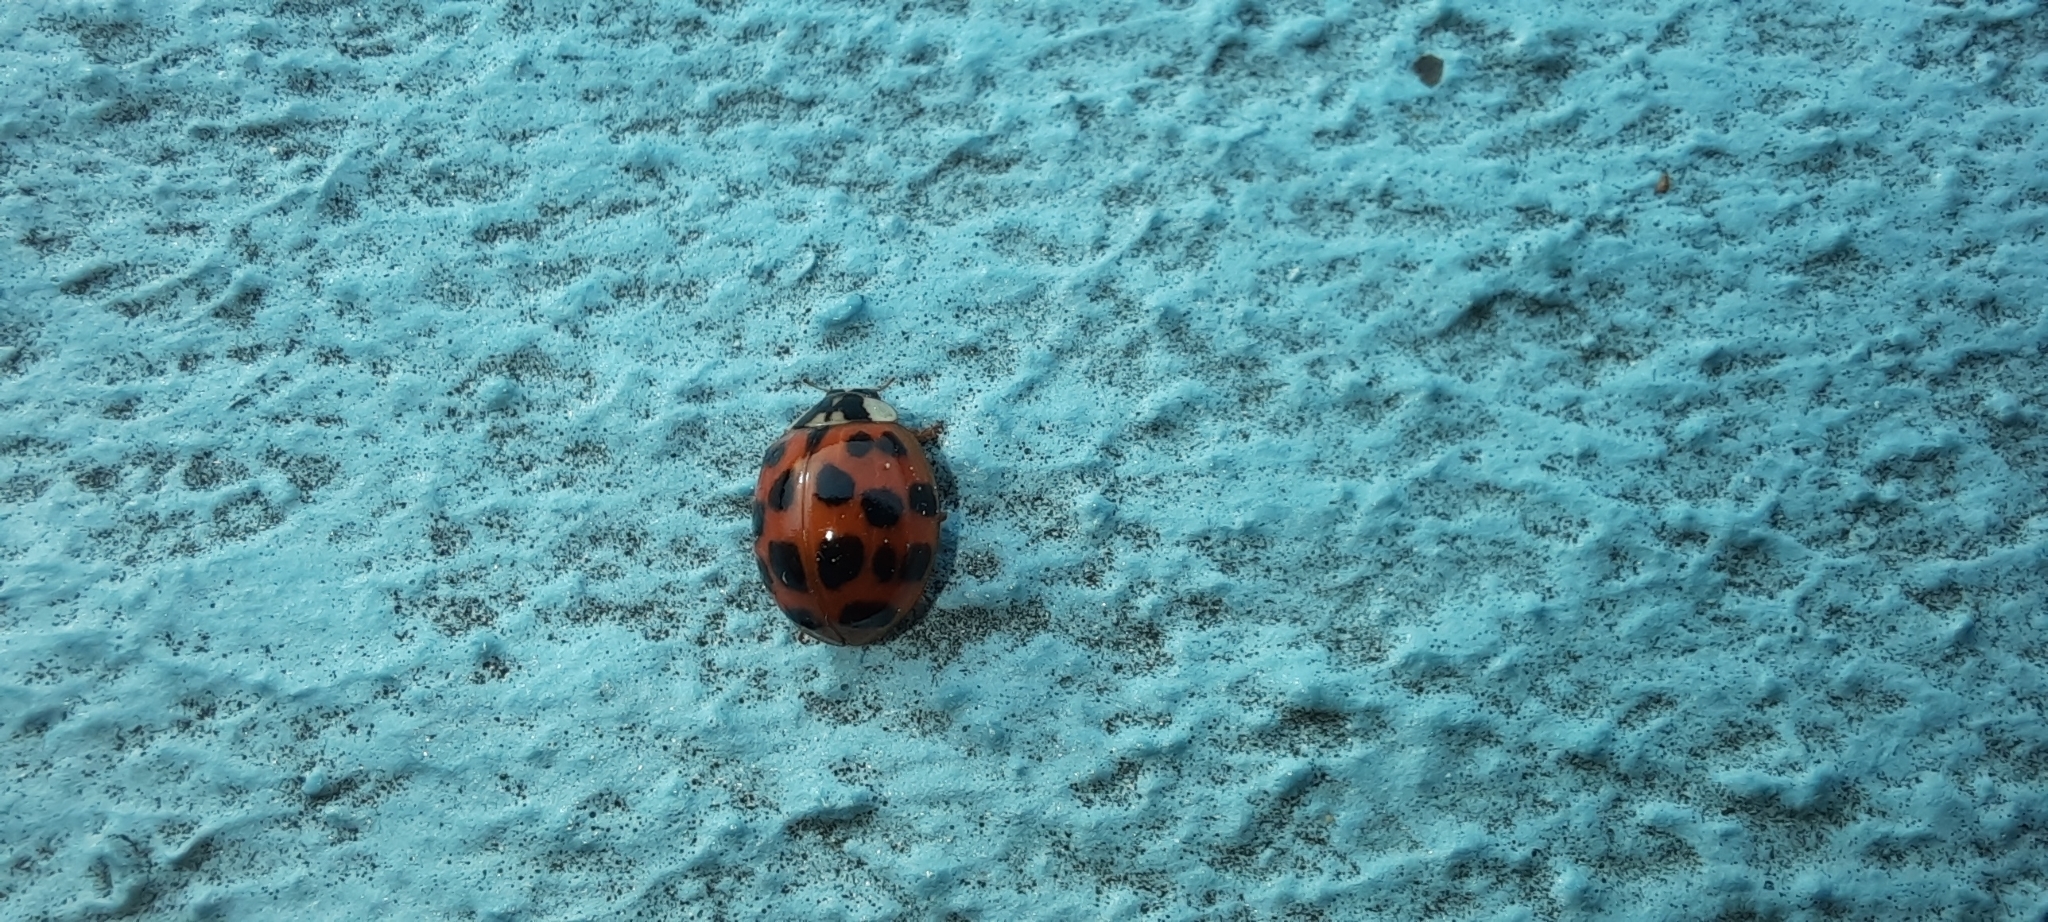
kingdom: Animalia
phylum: Arthropoda
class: Insecta
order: Coleoptera
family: Coccinellidae
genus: Harmonia
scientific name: Harmonia axyridis
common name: Harlequin ladybird
